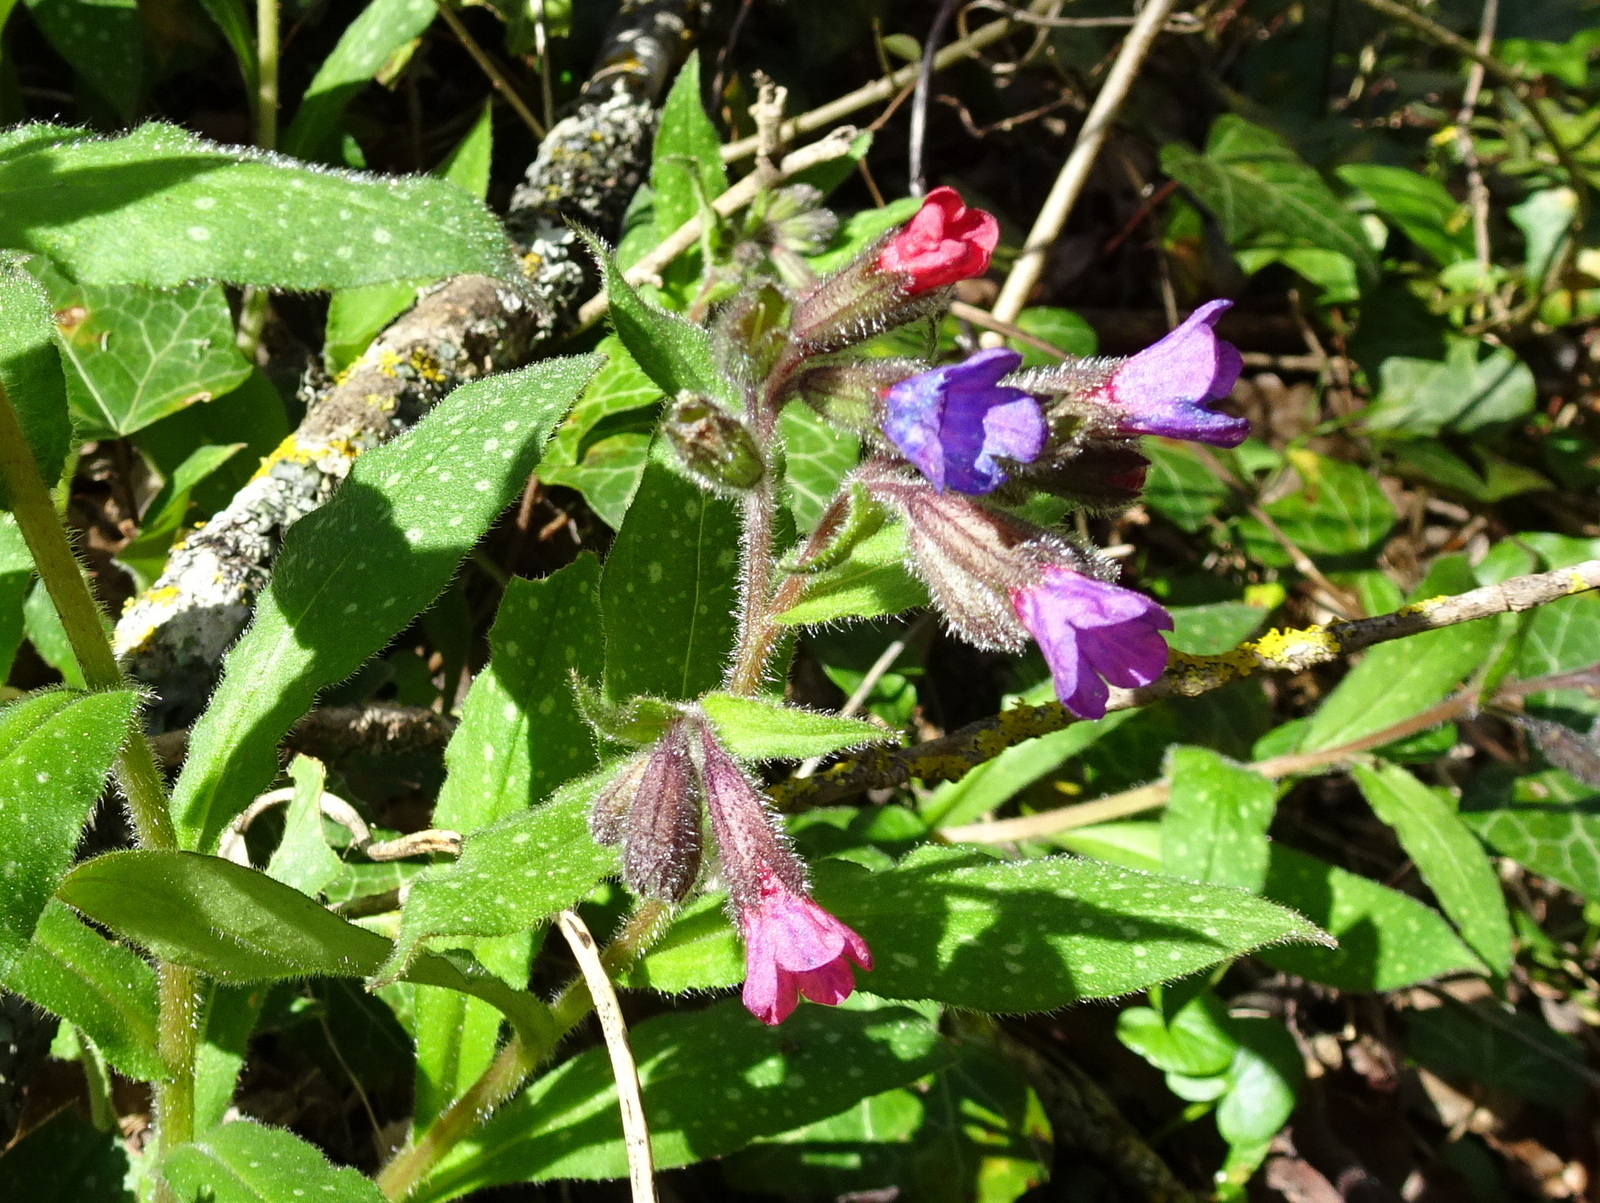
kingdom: Plantae
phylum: Tracheophyta
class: Magnoliopsida
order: Boraginales
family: Boraginaceae
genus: Pulmonaria
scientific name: Pulmonaria longifolia
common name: Narrow-leaved lungwort
